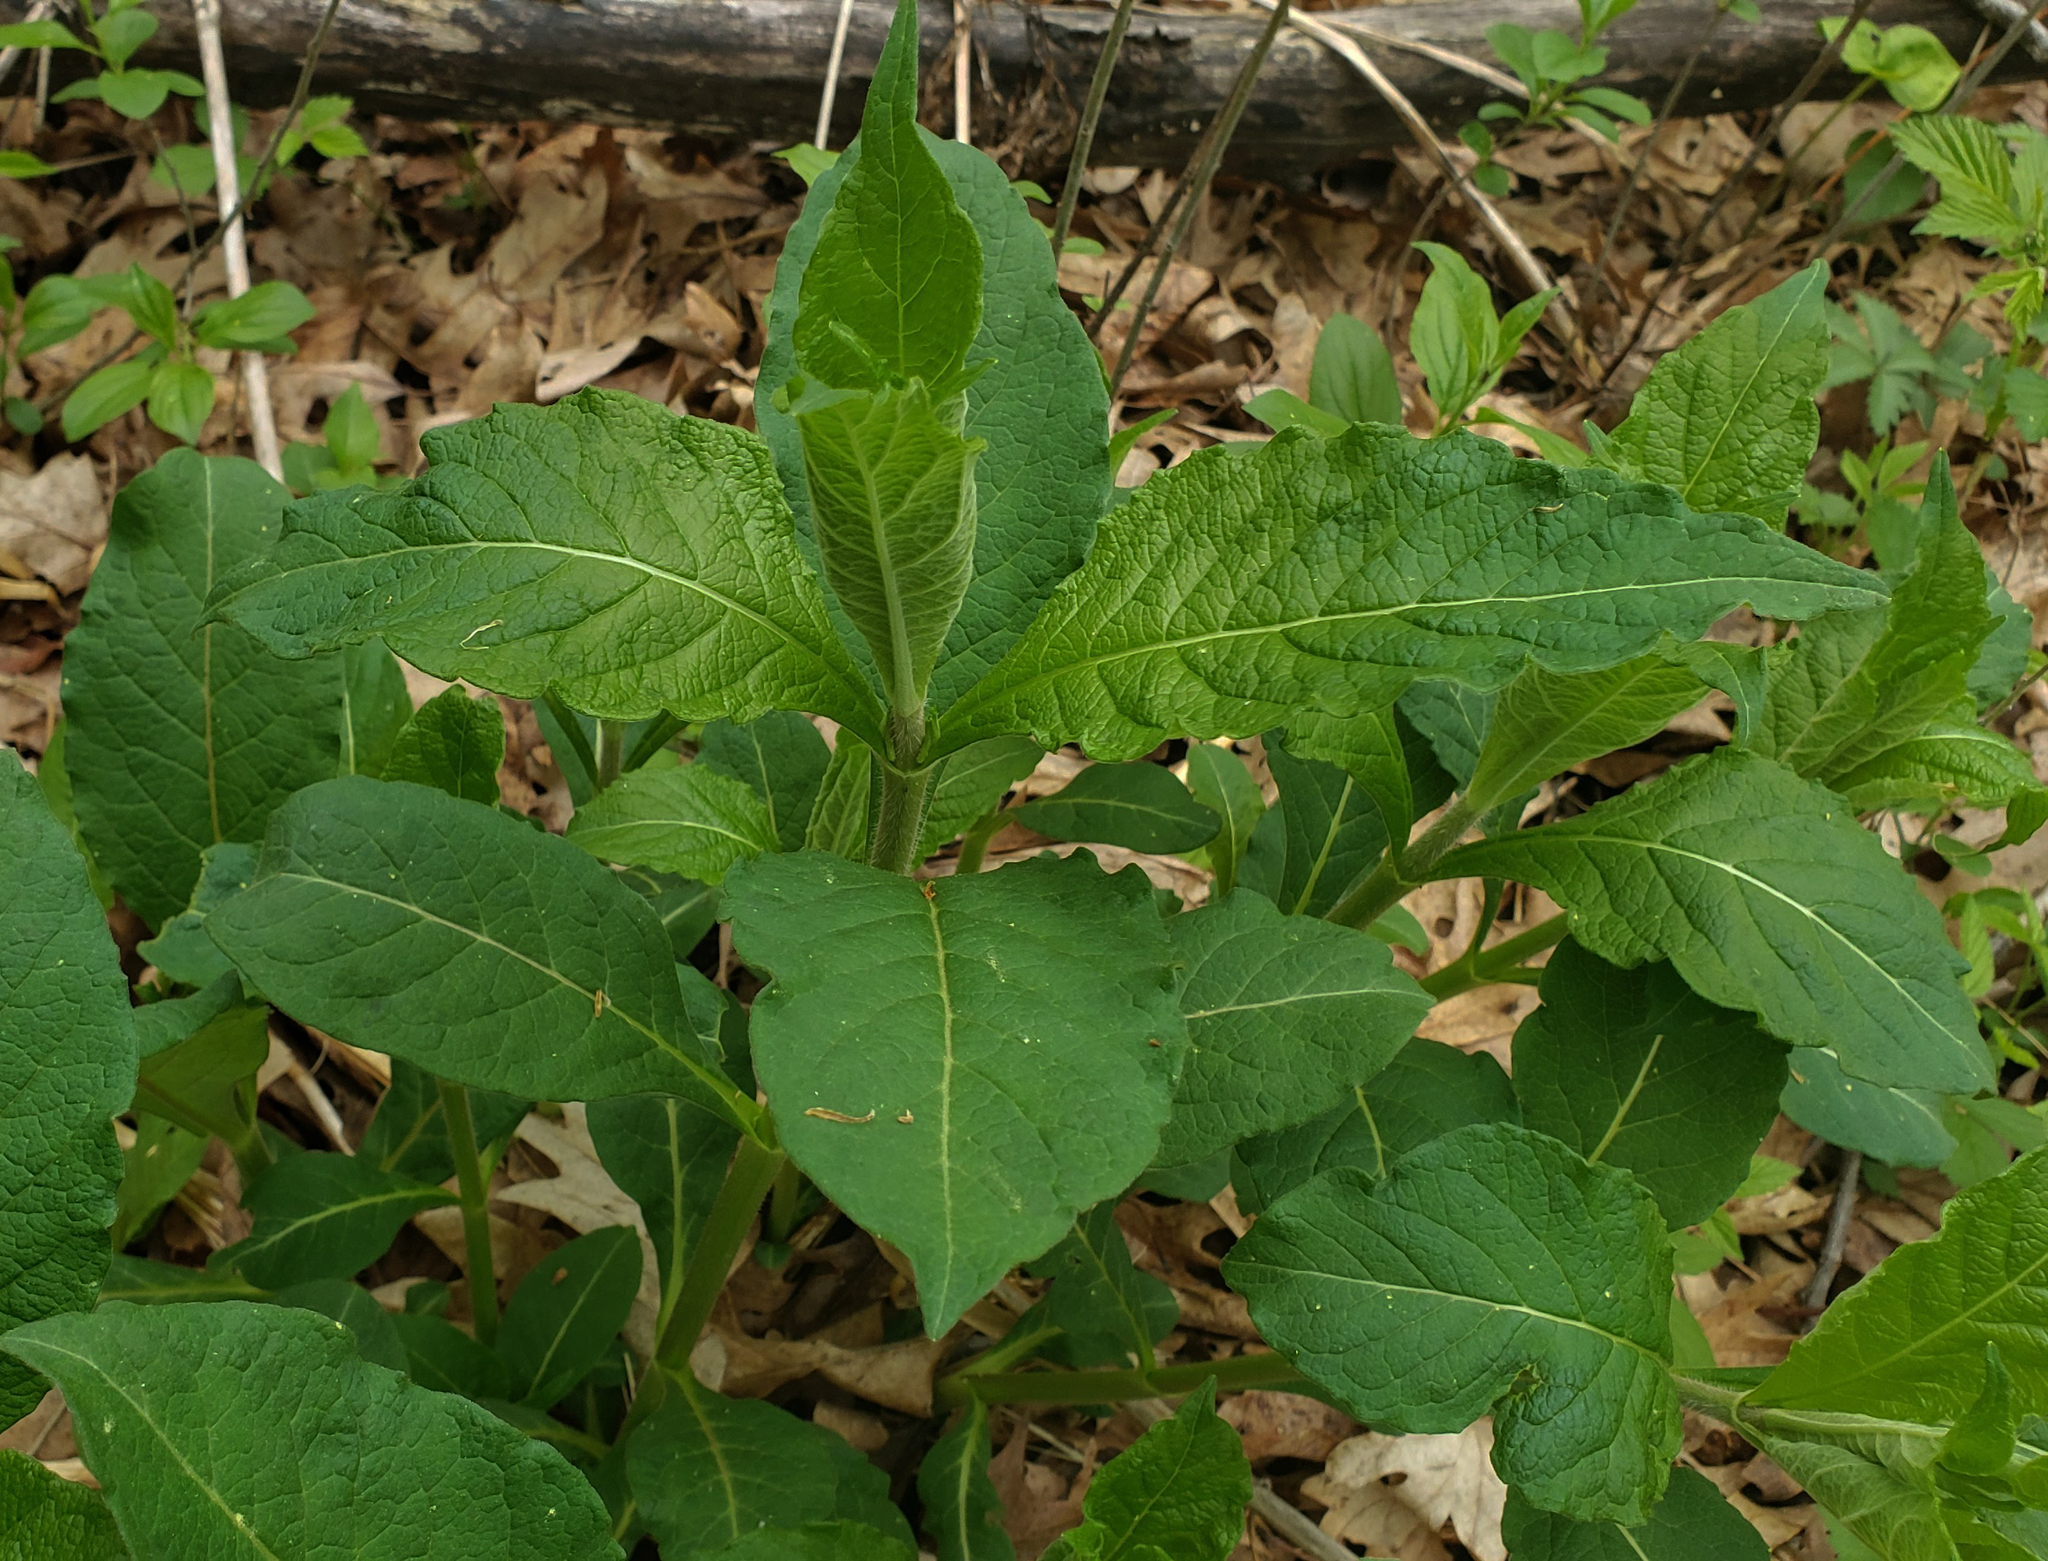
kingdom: Plantae
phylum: Tracheophyta
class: Magnoliopsida
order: Dipsacales
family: Caprifoliaceae
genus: Triosteum
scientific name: Triosteum aurantiacum
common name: Coffee tinker's-weed
